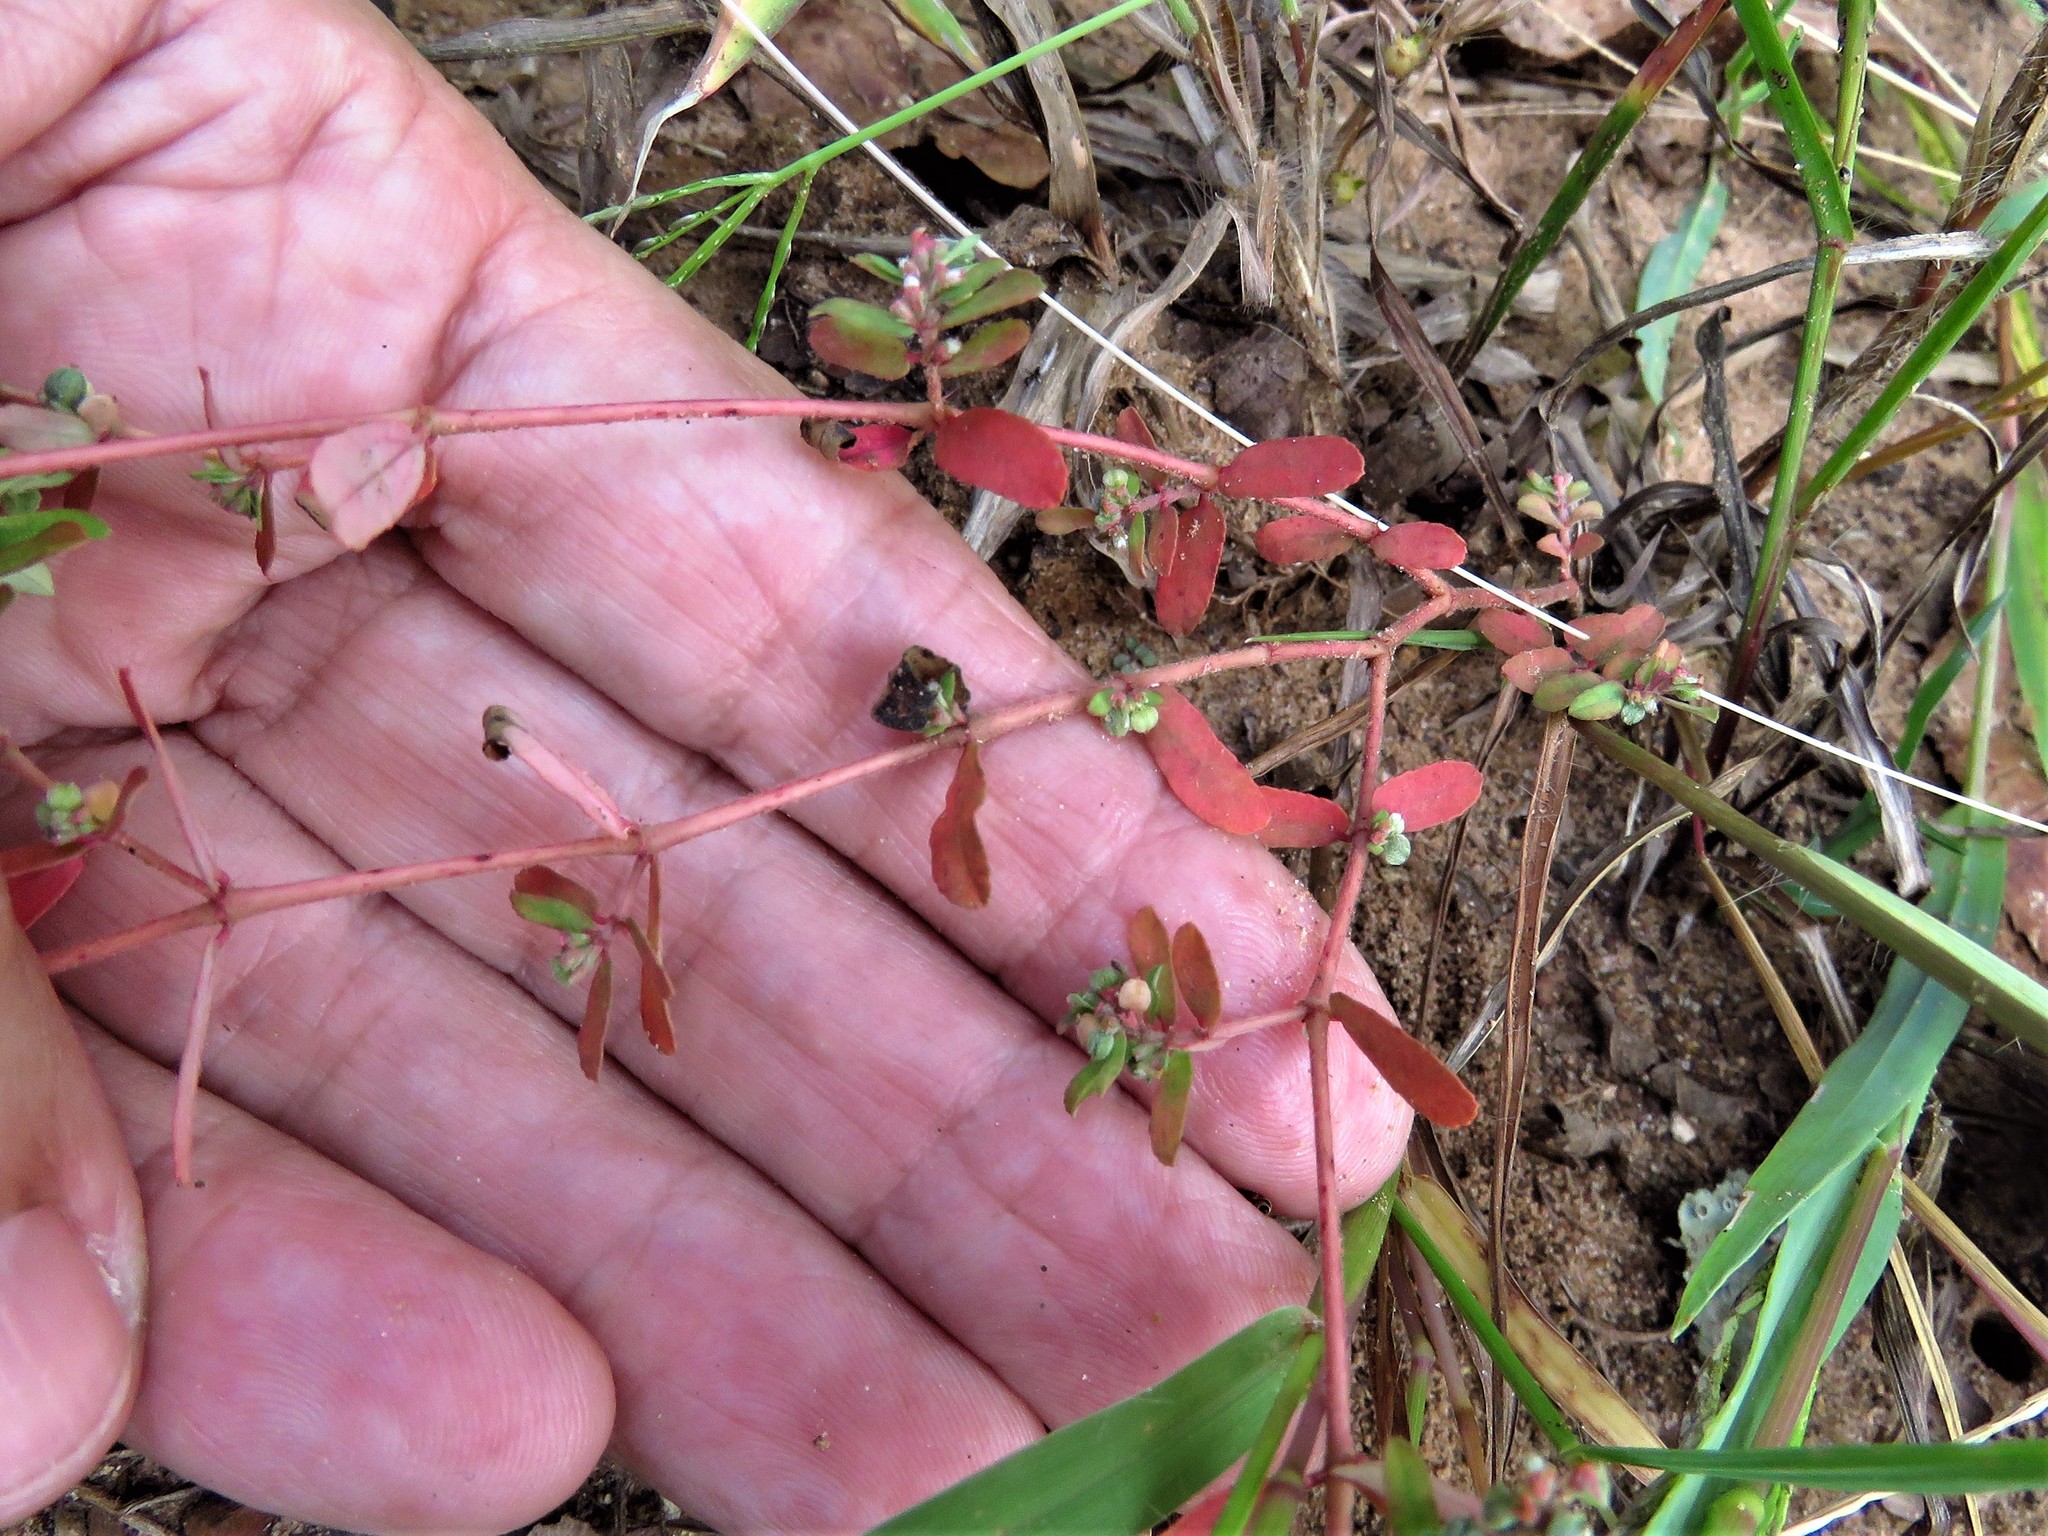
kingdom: Plantae
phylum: Tracheophyta
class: Magnoliopsida
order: Malpighiales
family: Euphorbiaceae
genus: Euphorbia
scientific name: Euphorbia maculata
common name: Spotted spurge
